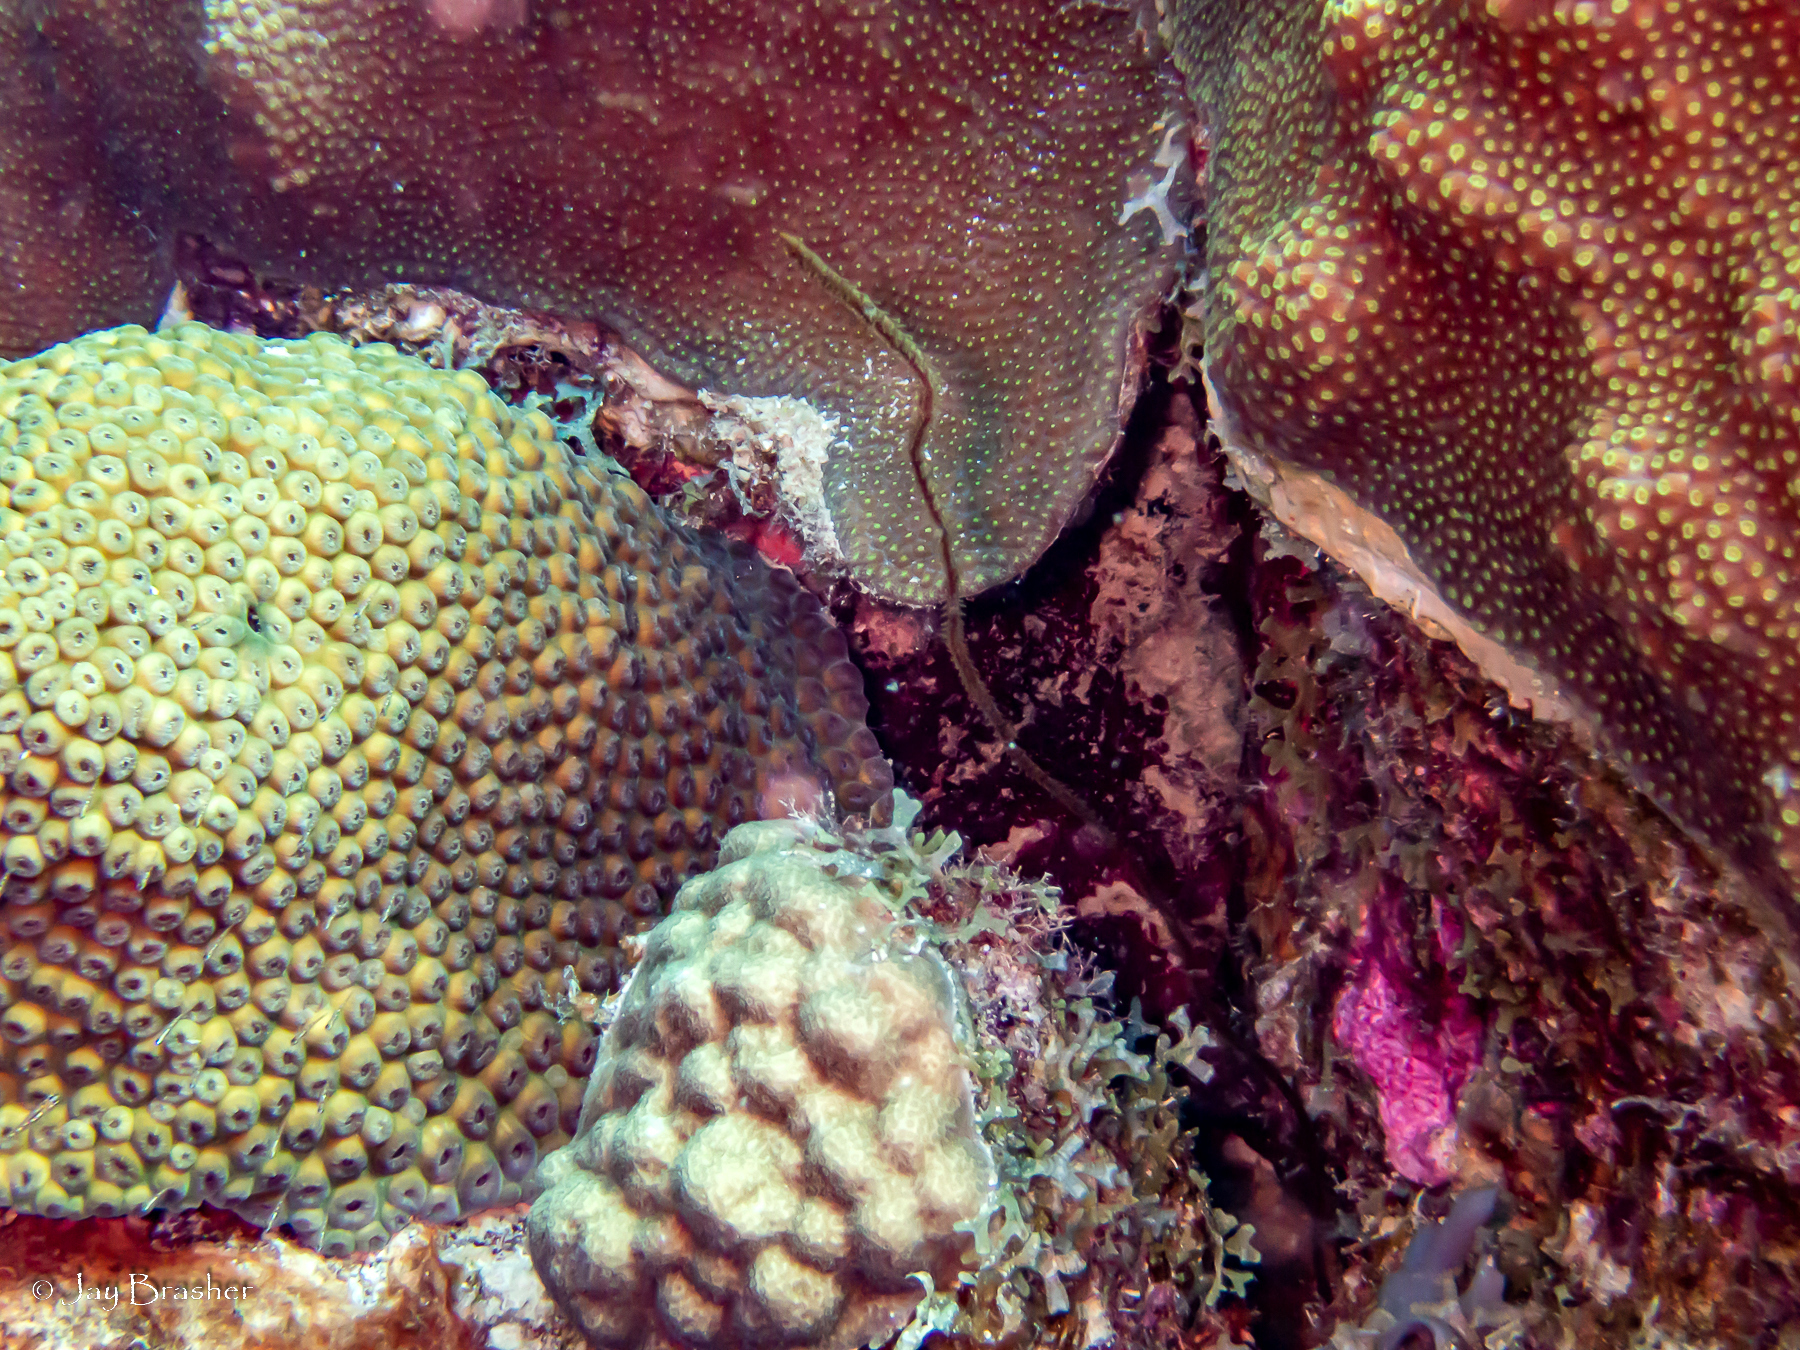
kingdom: Animalia
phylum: Cnidaria
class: Anthozoa
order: Scleractinia
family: Montastraeidae
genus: Montastraea
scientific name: Montastraea cavernosa
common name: Great star coral
